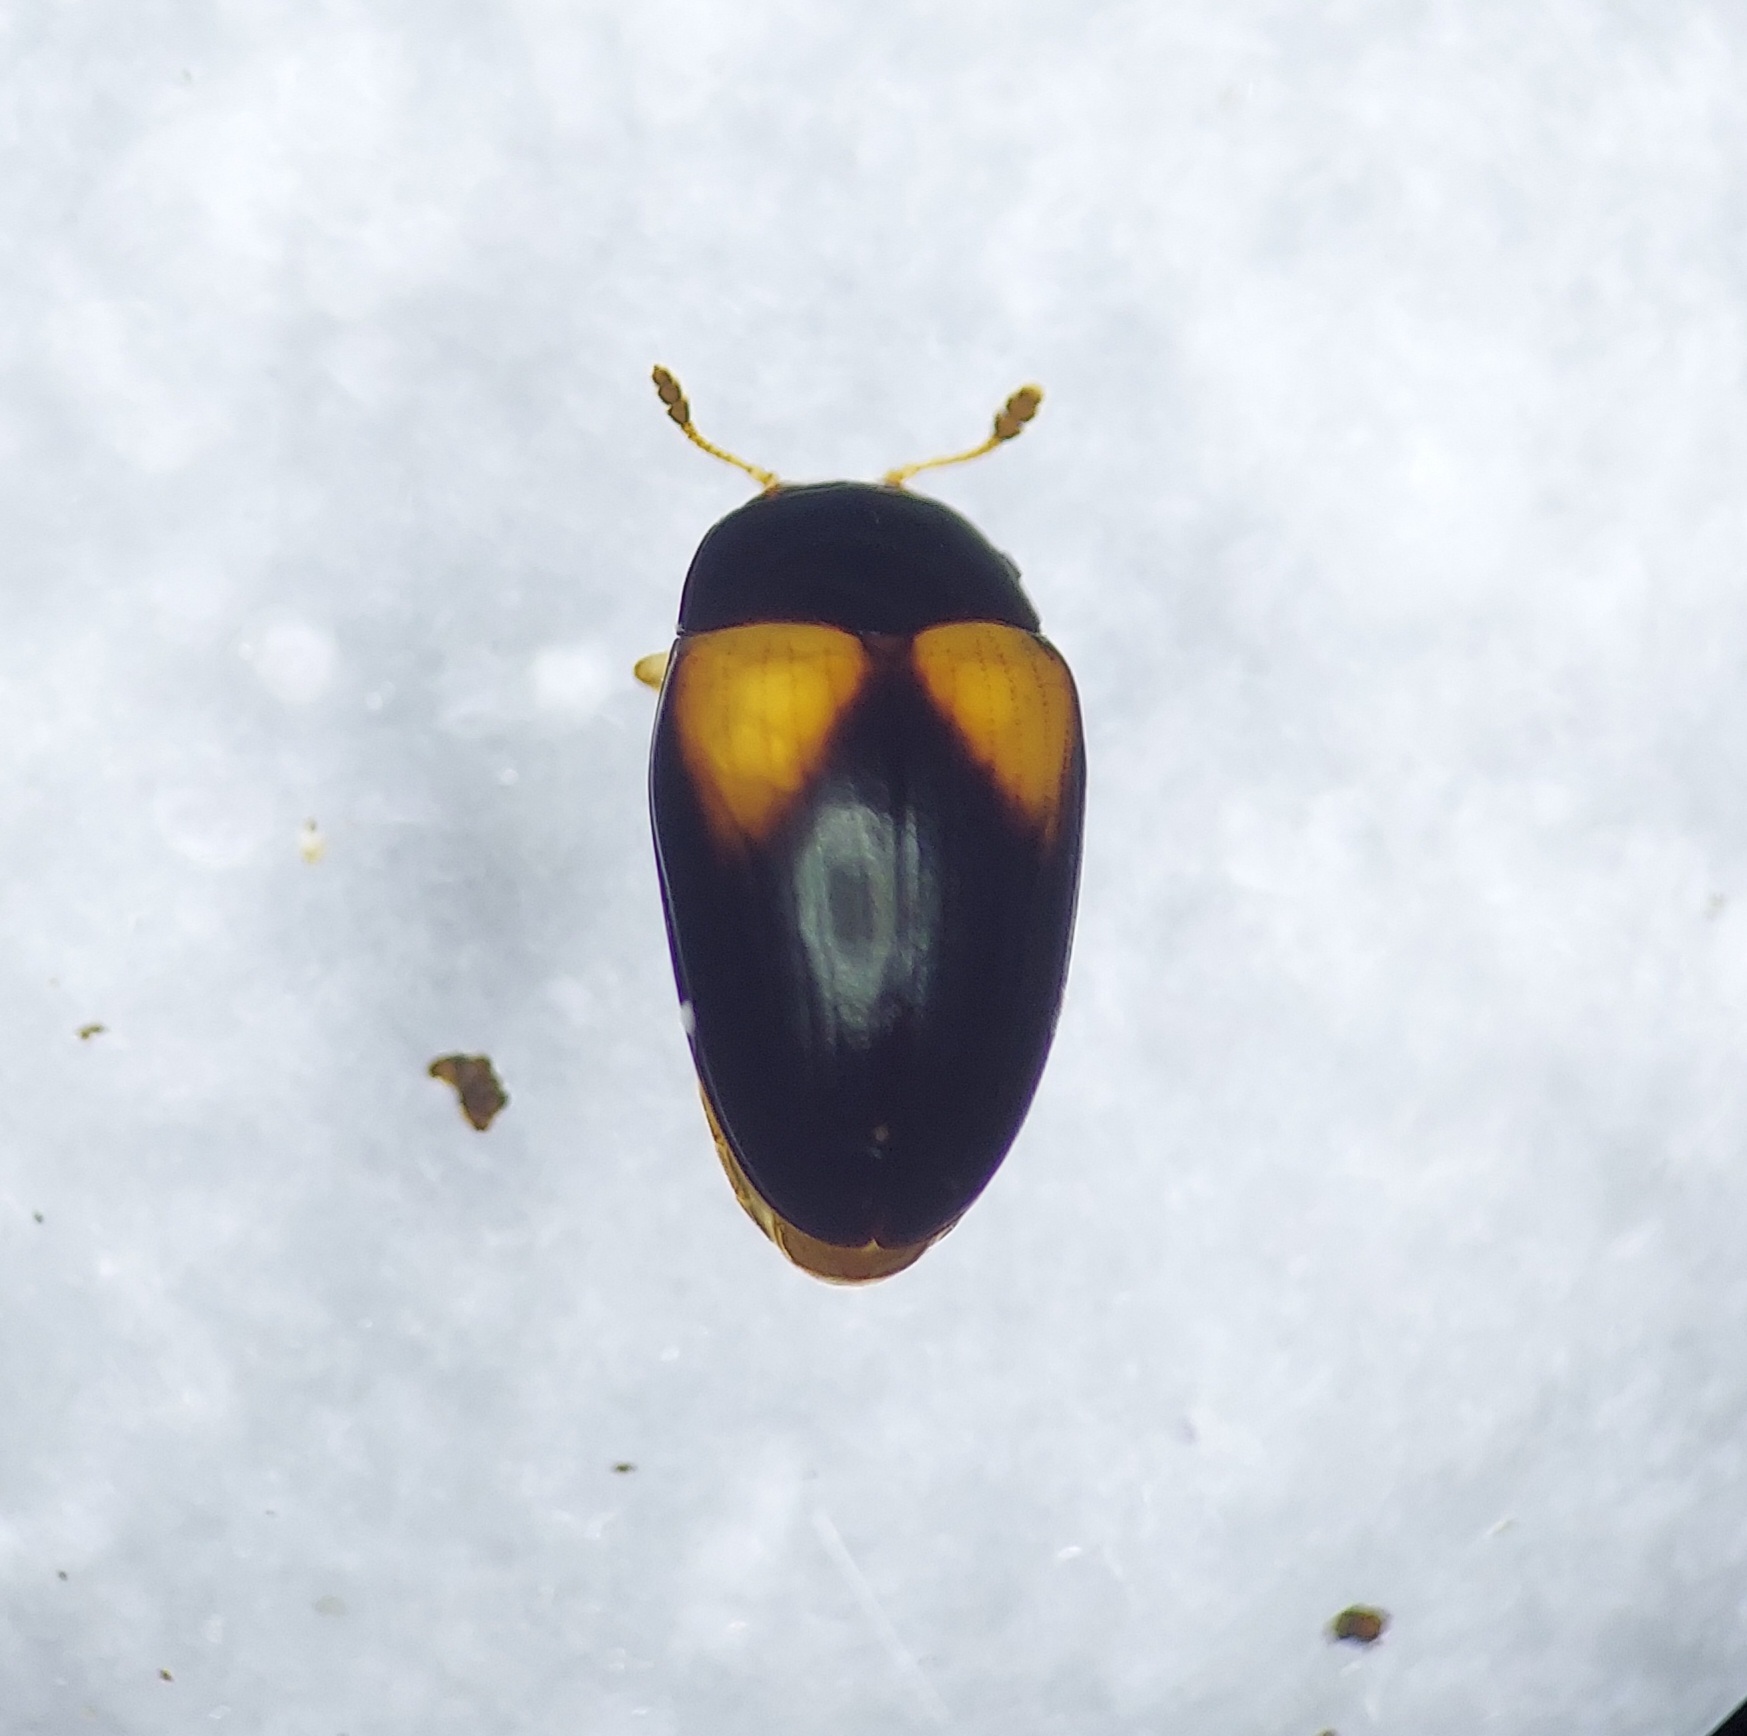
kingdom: Animalia
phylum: Arthropoda
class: Insecta
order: Coleoptera
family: Erotylidae
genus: Tritoma
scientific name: Tritoma biguttata
